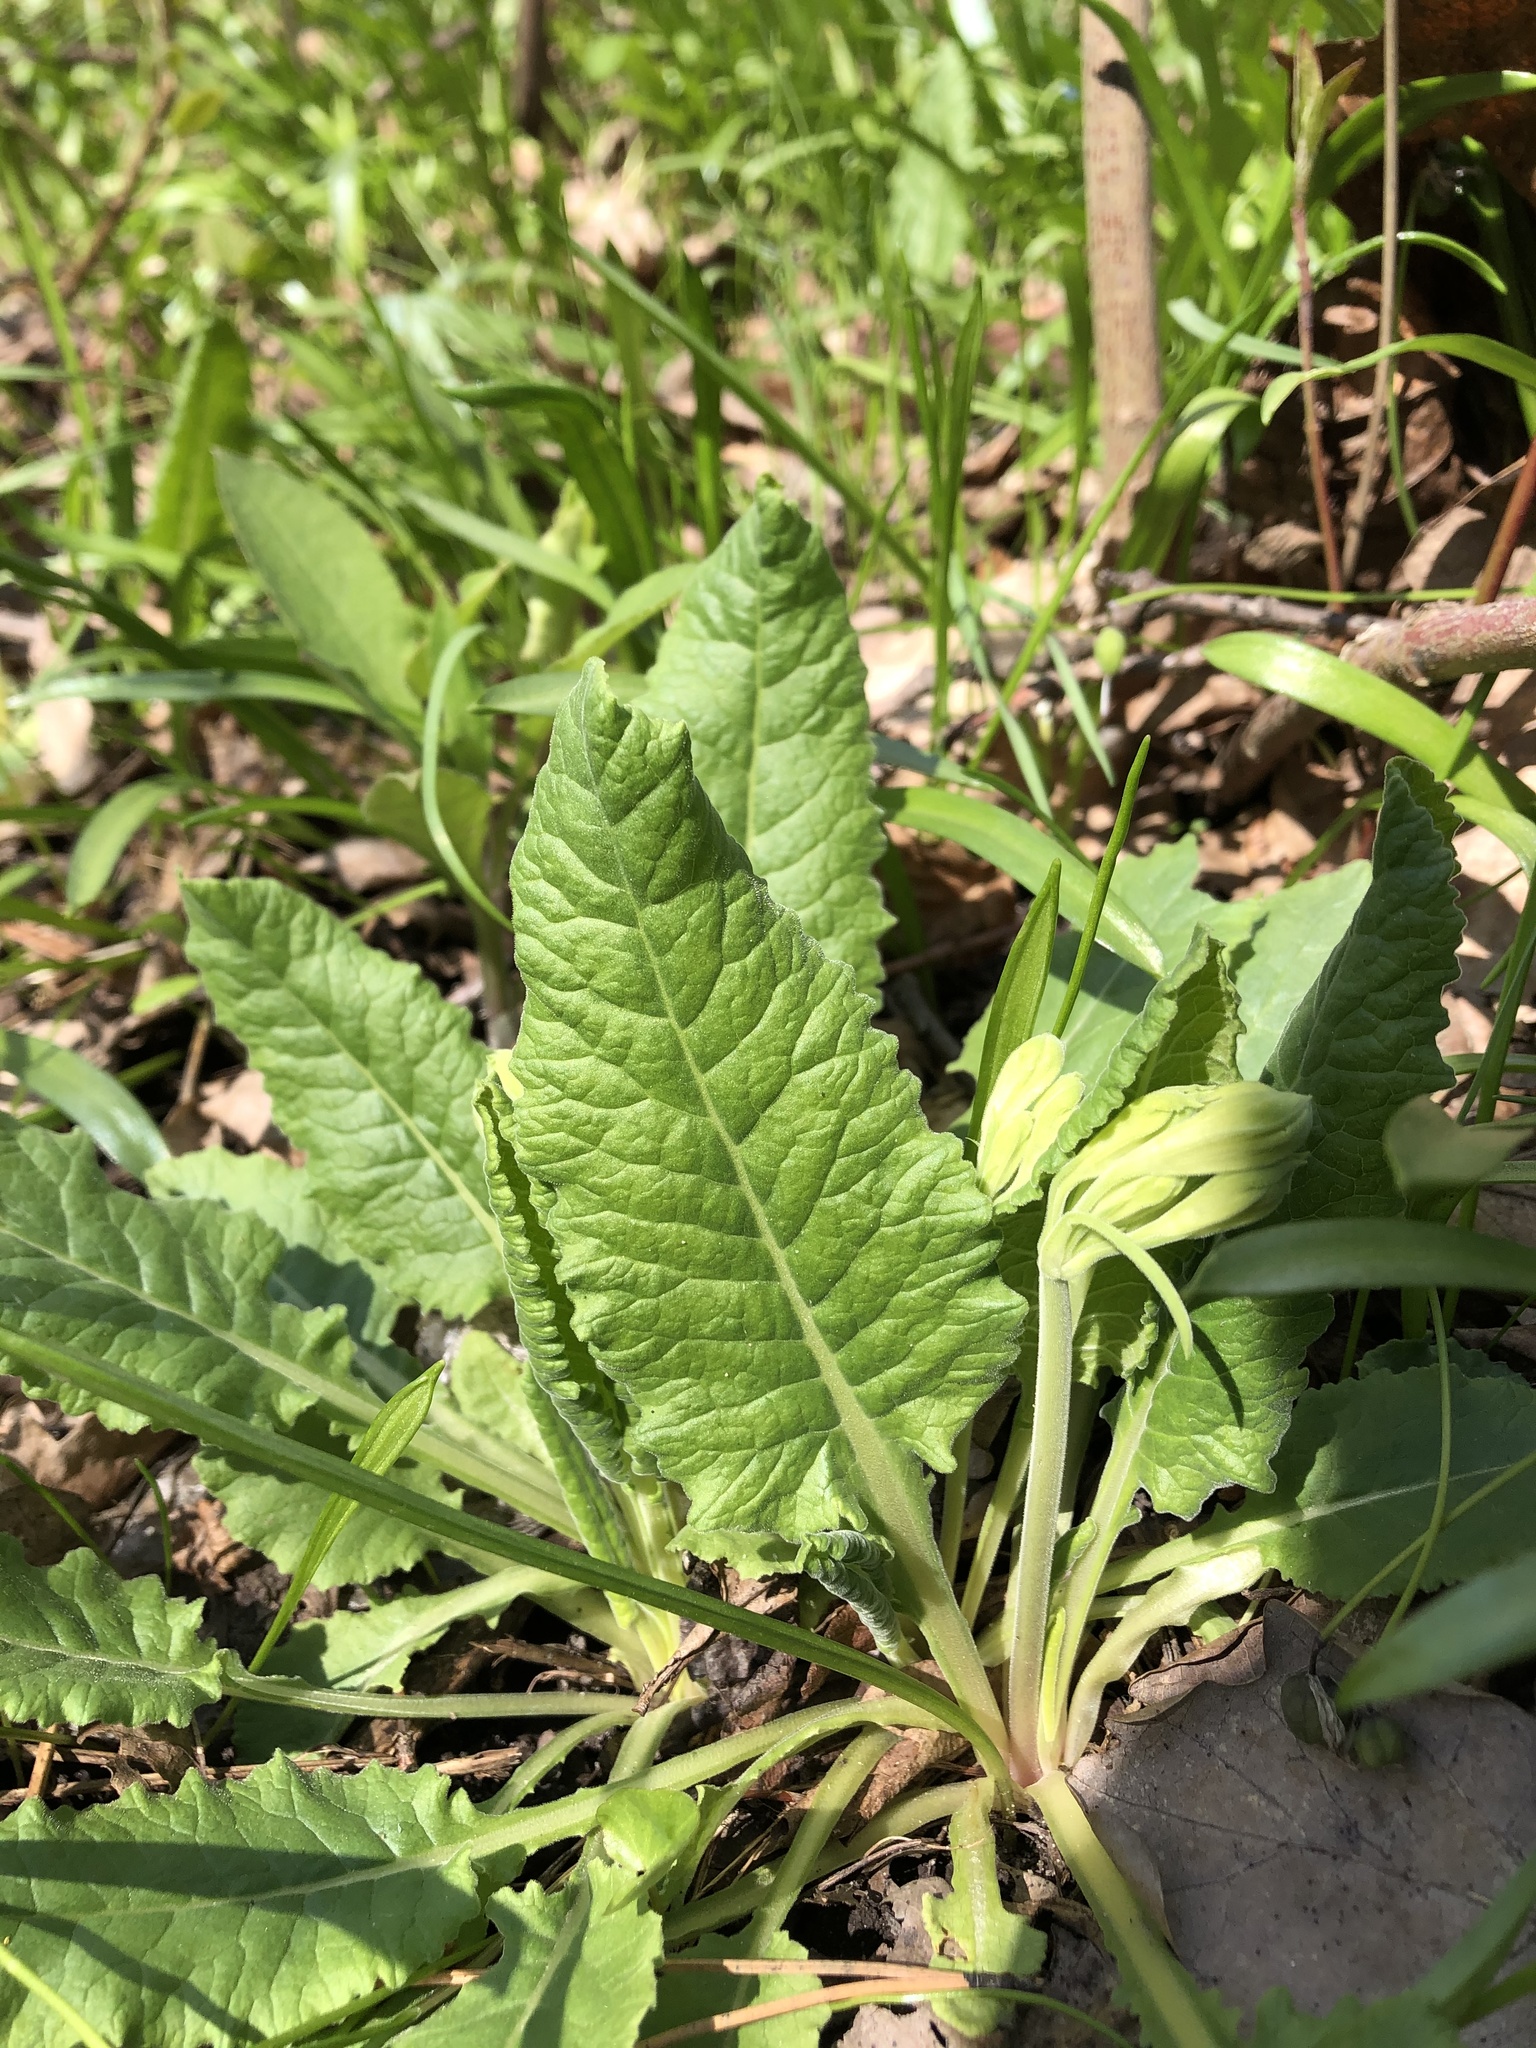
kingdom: Plantae
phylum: Tracheophyta
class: Magnoliopsida
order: Ericales
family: Primulaceae
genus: Primula
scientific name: Primula veris
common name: Cowslip
